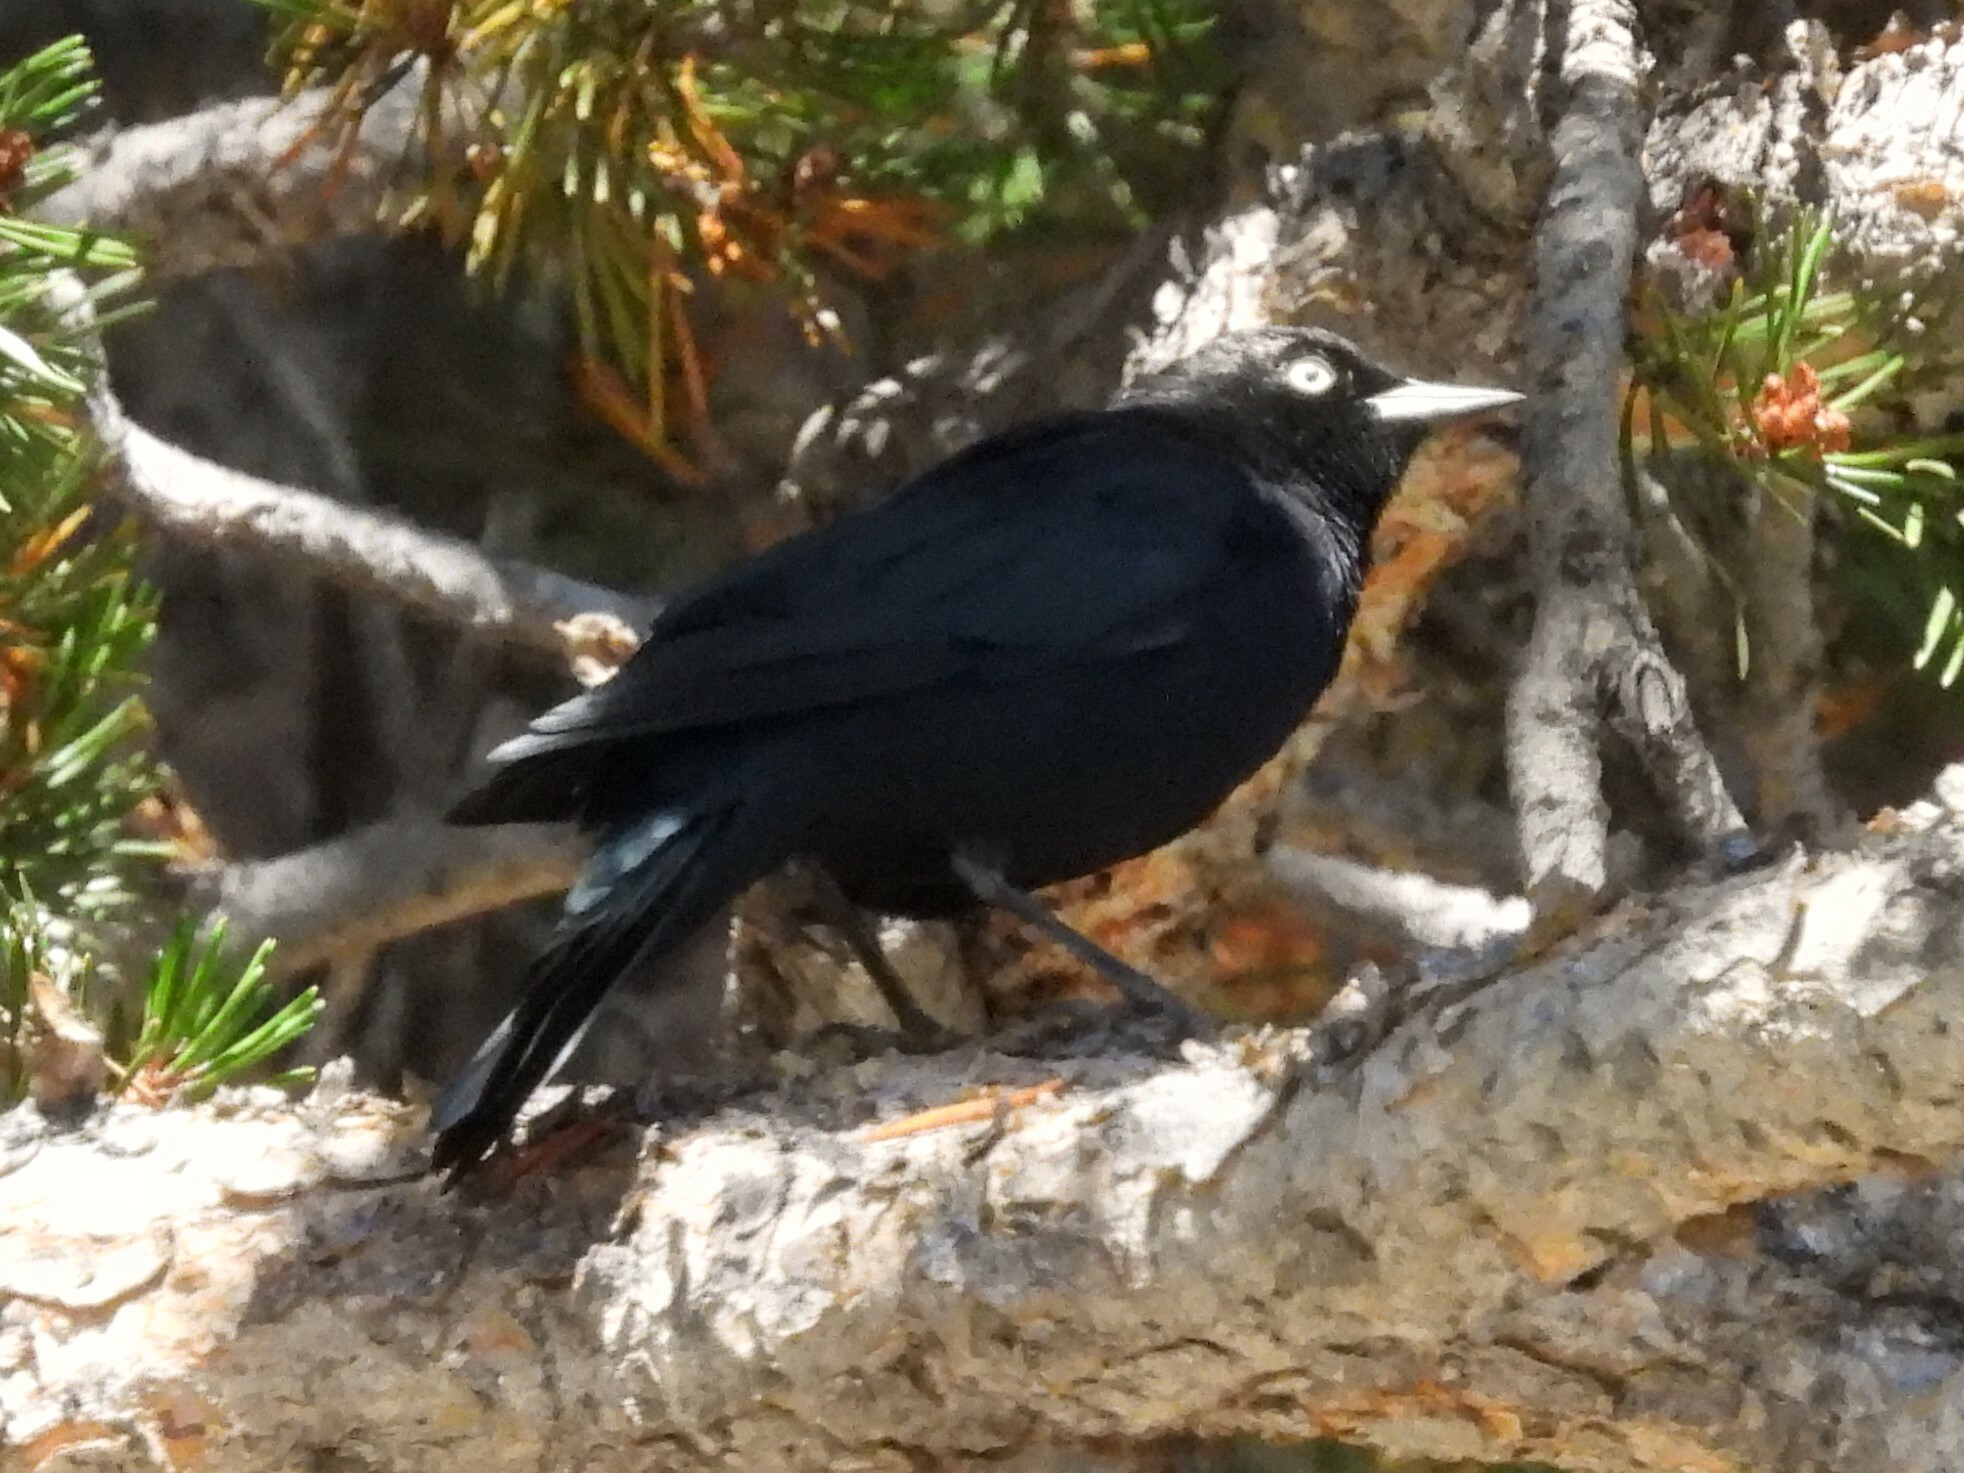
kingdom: Animalia
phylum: Chordata
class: Aves
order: Passeriformes
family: Icteridae
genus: Euphagus
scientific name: Euphagus cyanocephalus
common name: Brewer's blackbird
